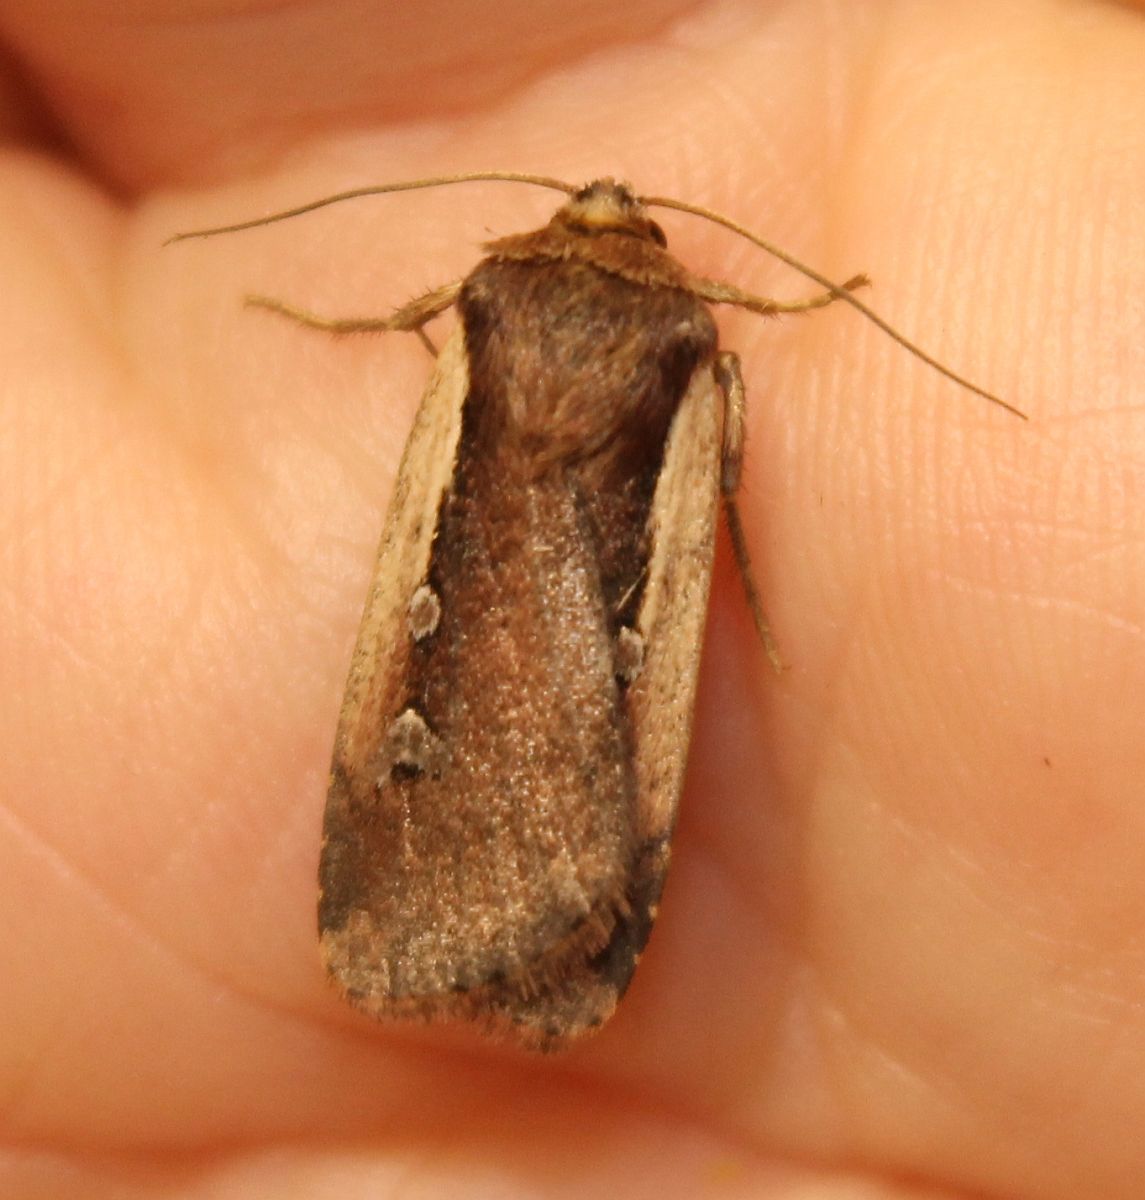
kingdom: Animalia
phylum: Arthropoda
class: Insecta
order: Lepidoptera
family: Noctuidae
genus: Ochropleura
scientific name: Ochropleura plecta
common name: Flame shoulder
